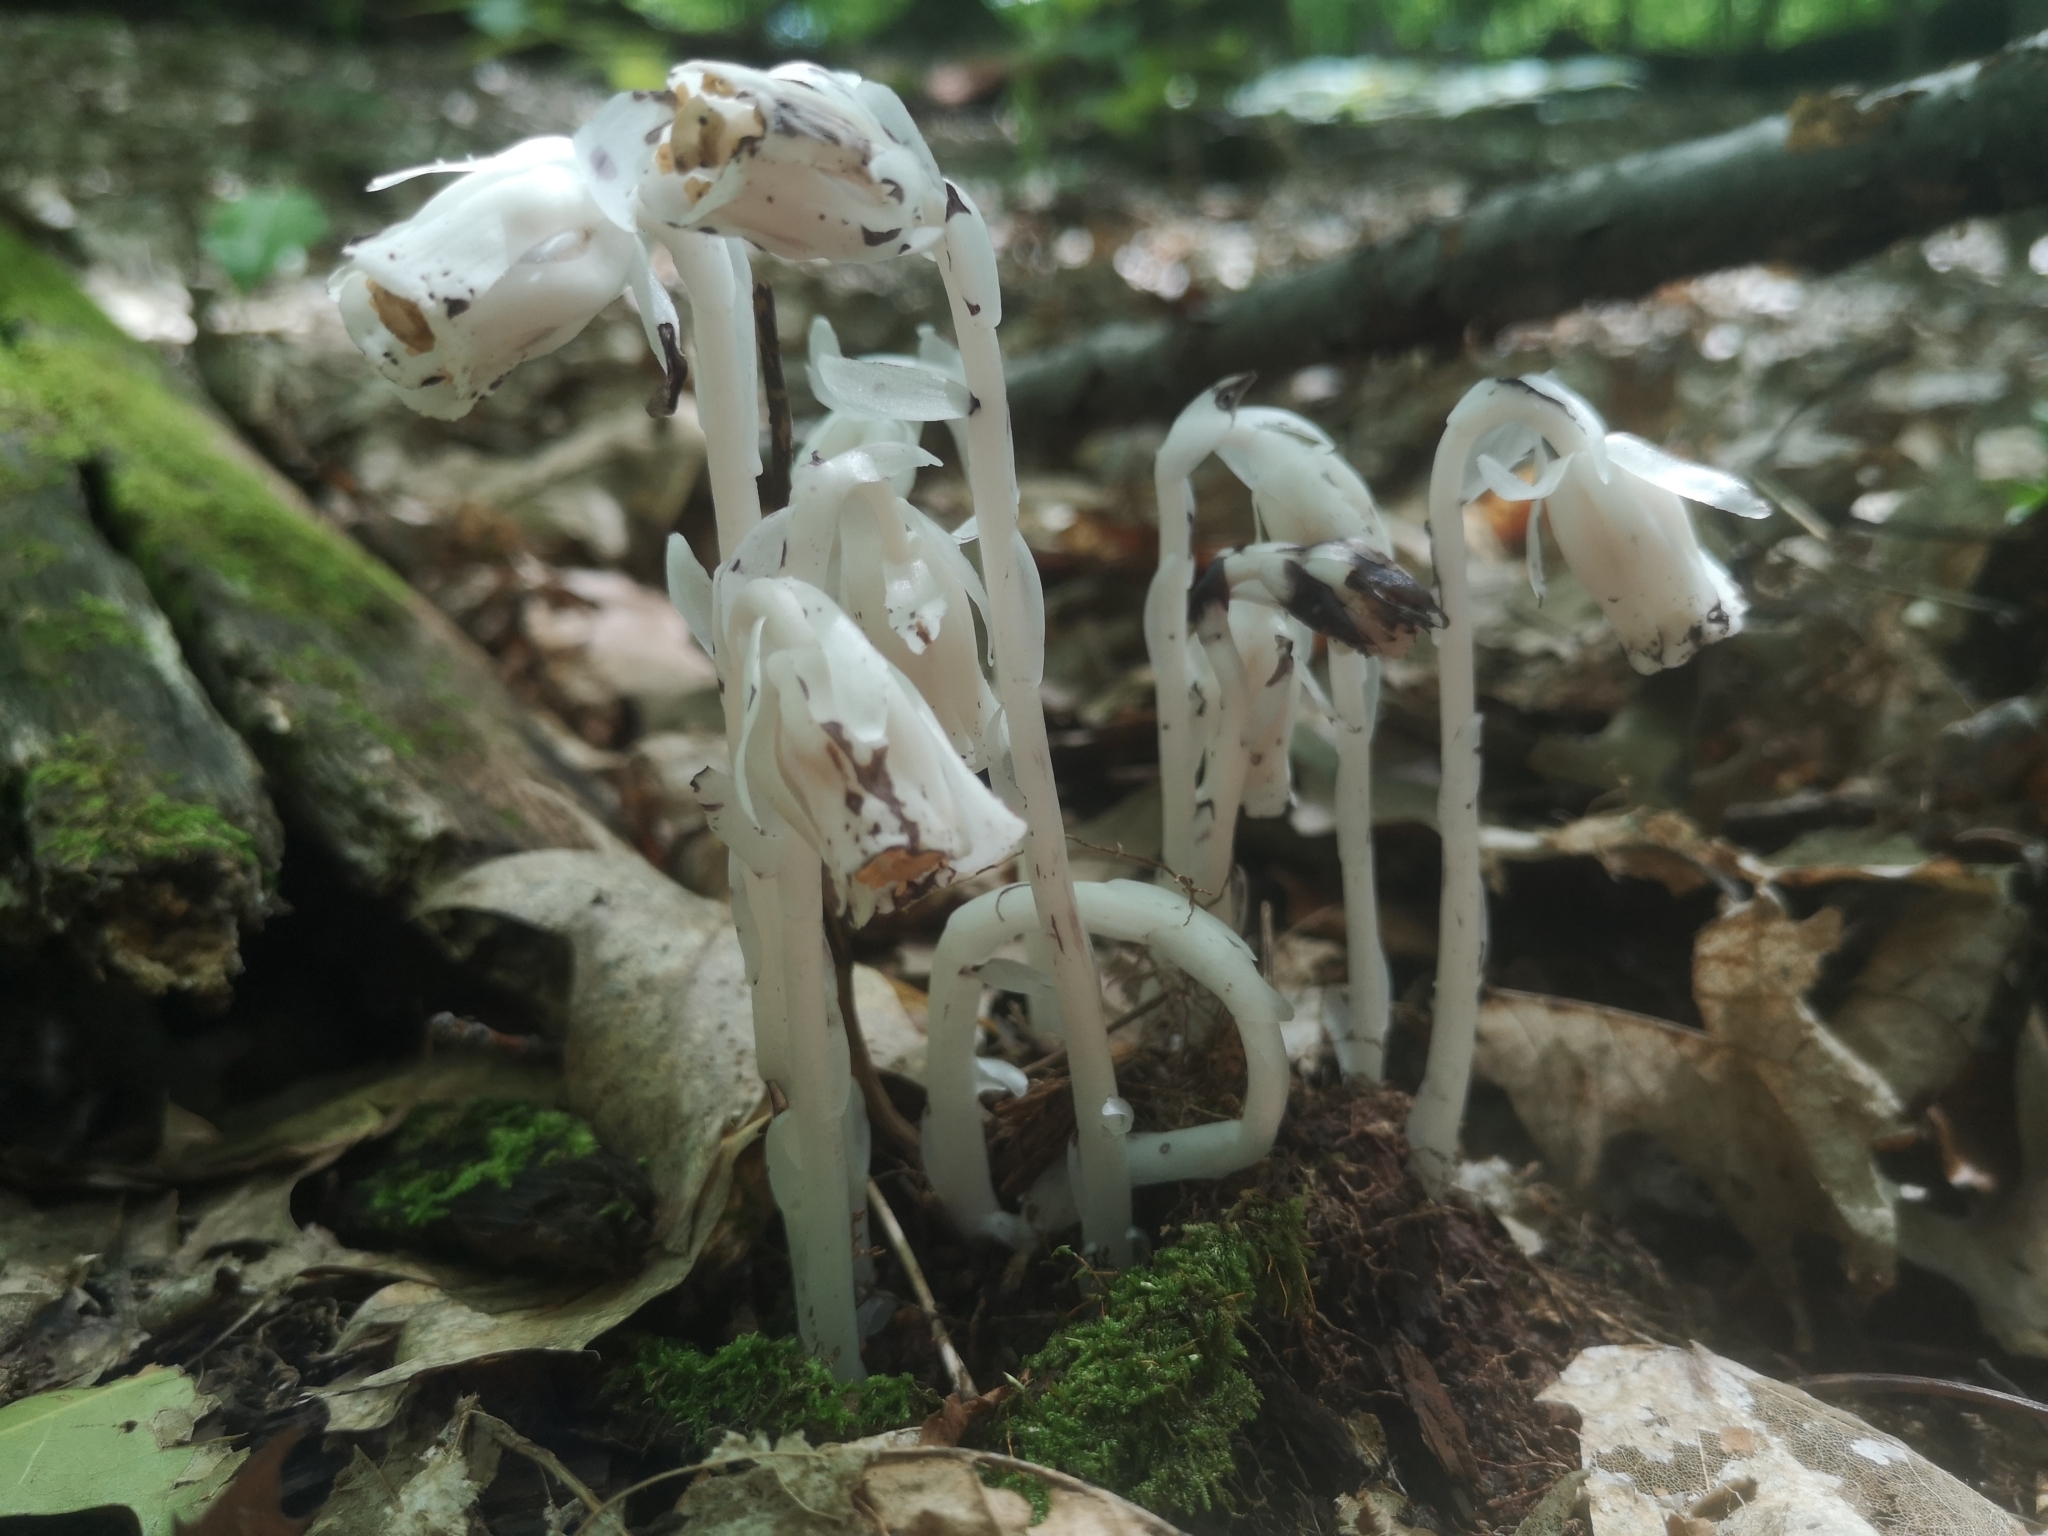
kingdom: Plantae
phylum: Tracheophyta
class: Magnoliopsida
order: Ericales
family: Ericaceae
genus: Monotropa
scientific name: Monotropa uniflora
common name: Convulsion root
